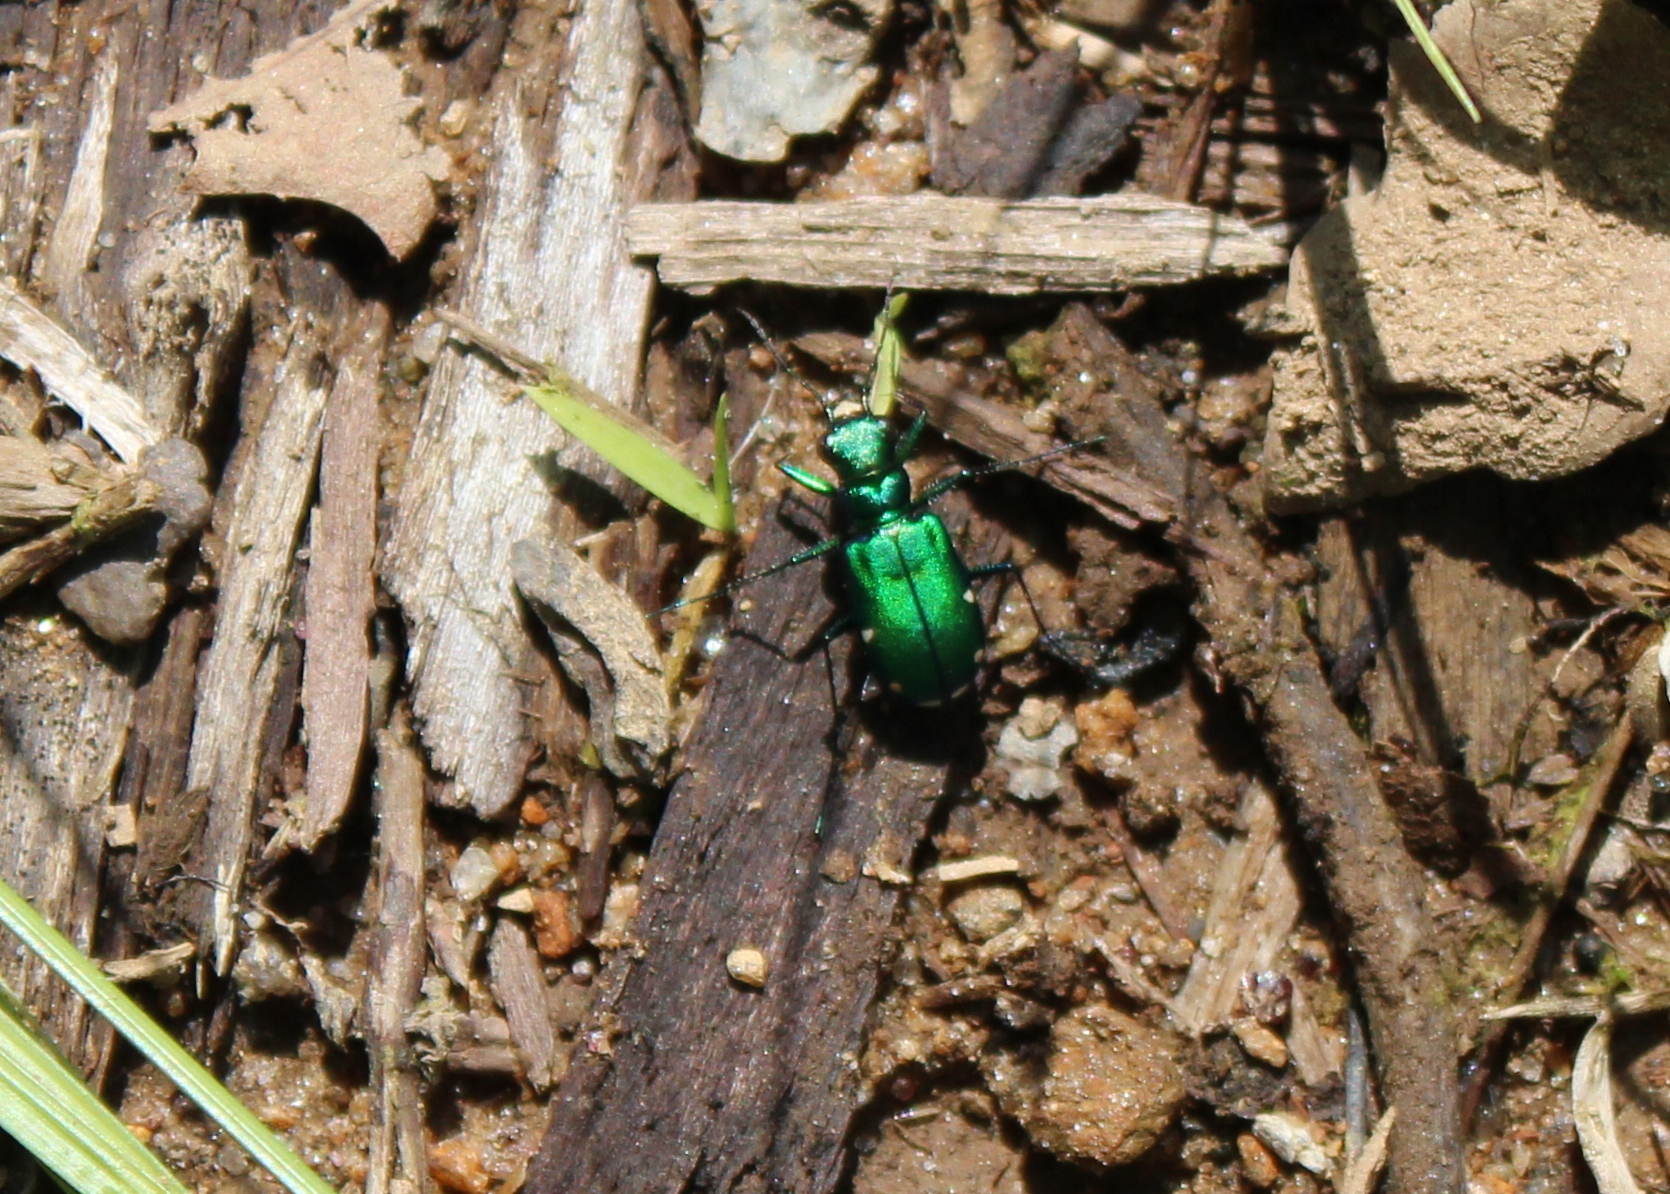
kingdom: Animalia
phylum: Arthropoda
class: Insecta
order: Coleoptera
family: Carabidae
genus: Cicindela
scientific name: Cicindela sexguttata
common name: Six-spotted tiger beetle
